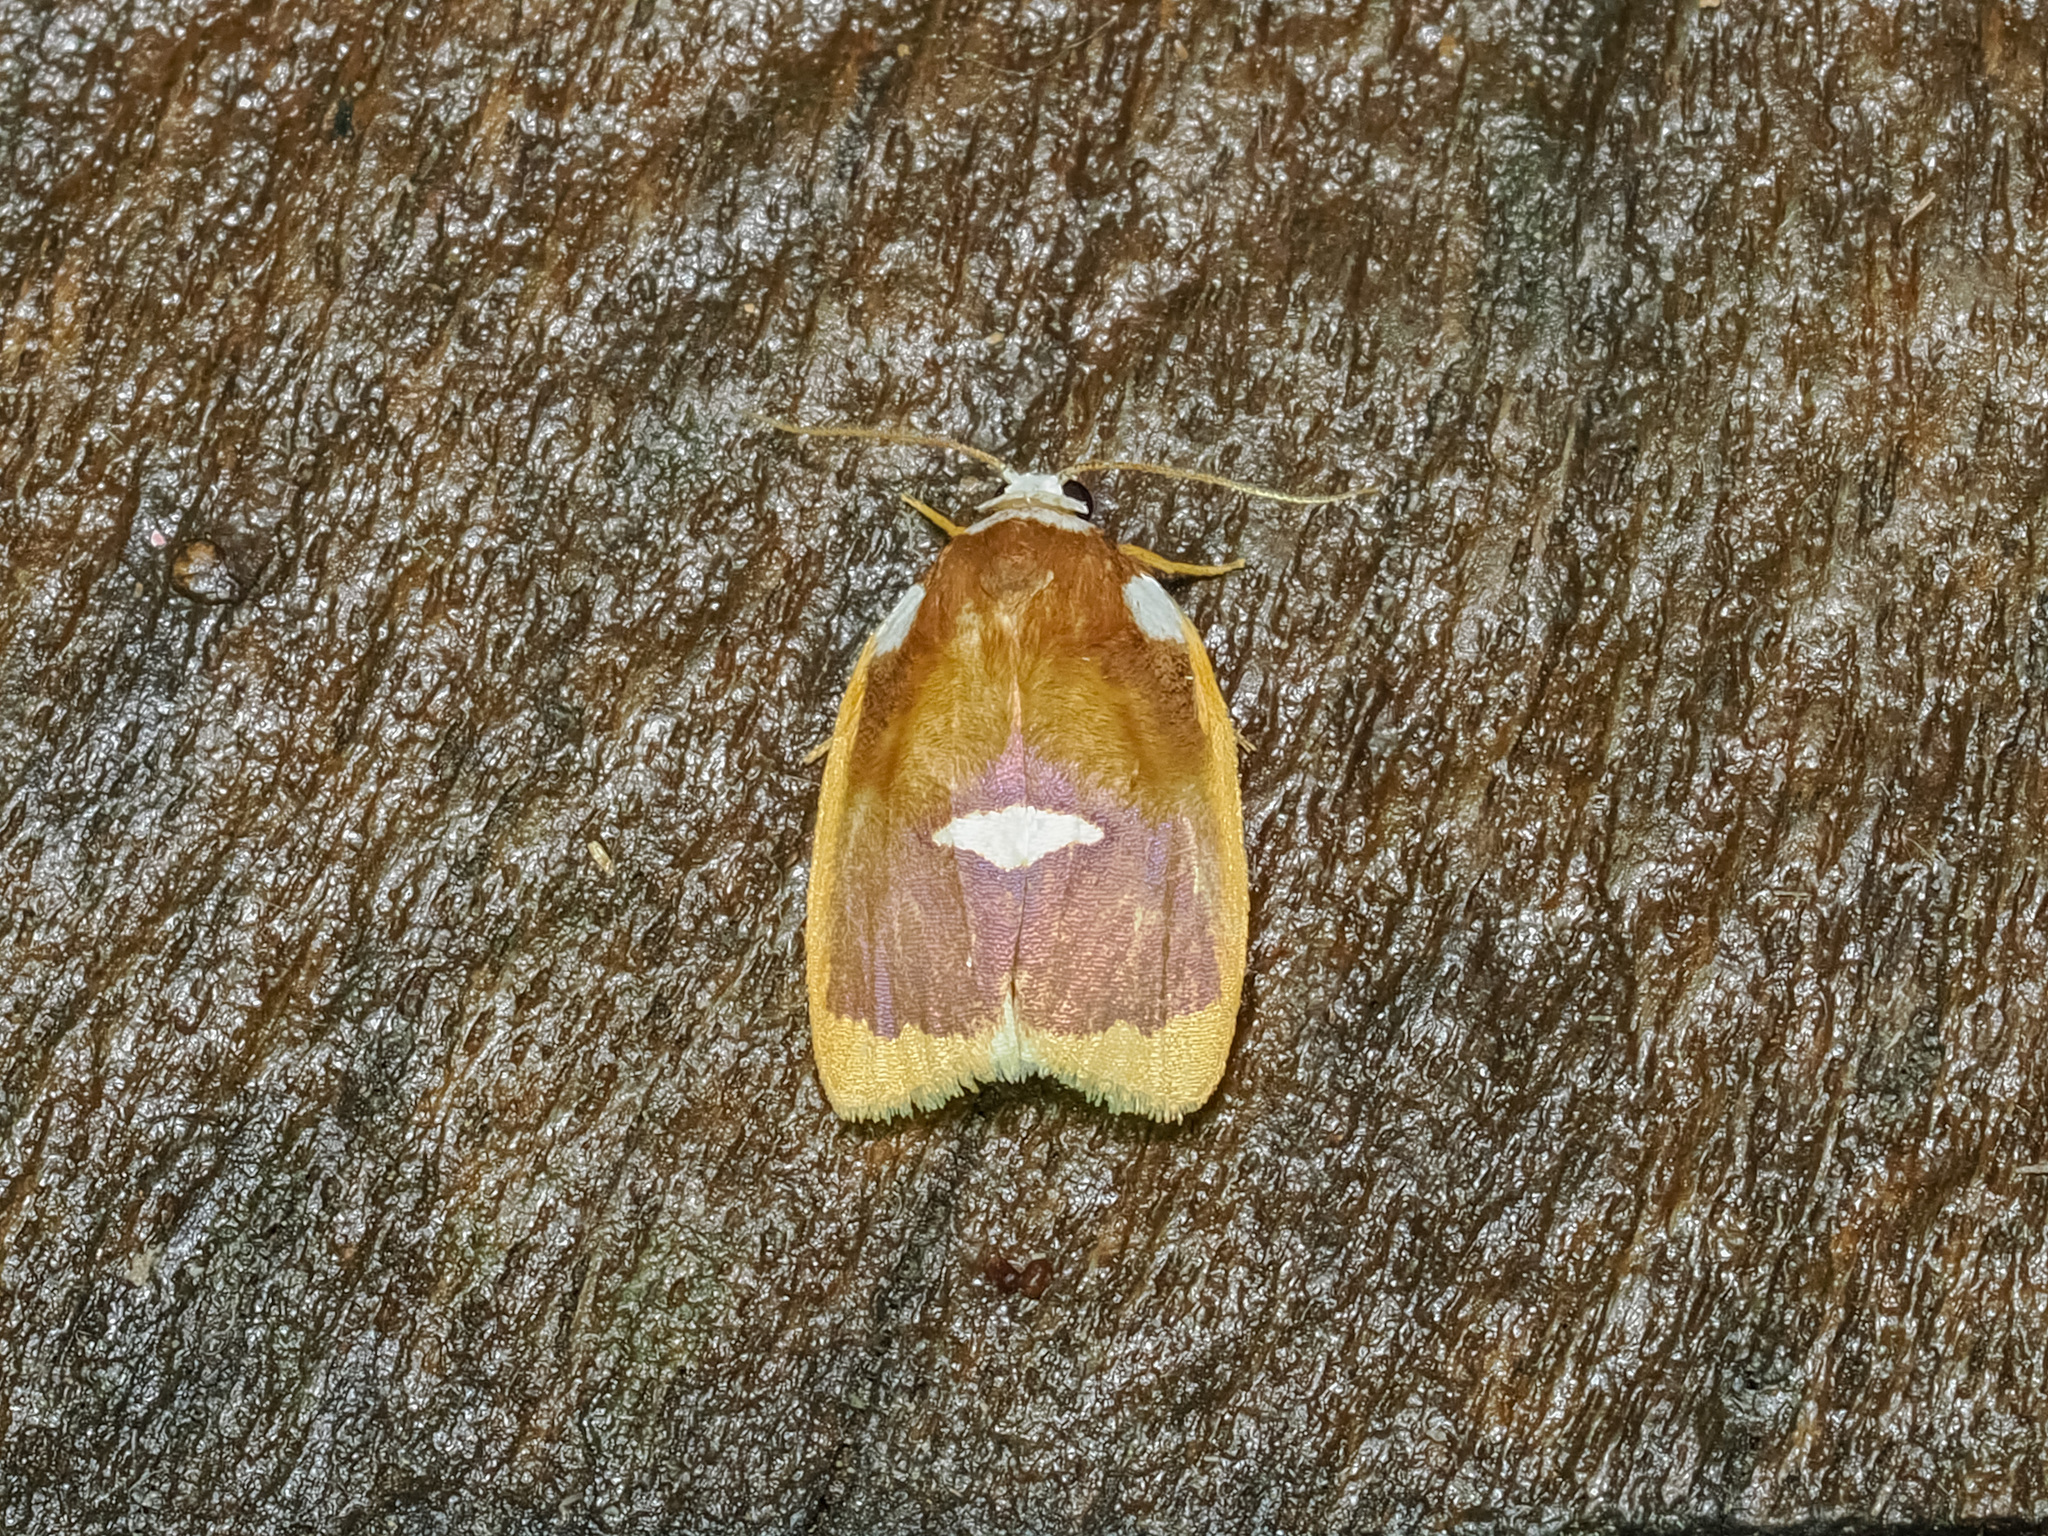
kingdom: Animalia
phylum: Arthropoda
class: Insecta
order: Lepidoptera
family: Erebidae
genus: Lobobasis
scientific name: Lobobasis niveimaculata
